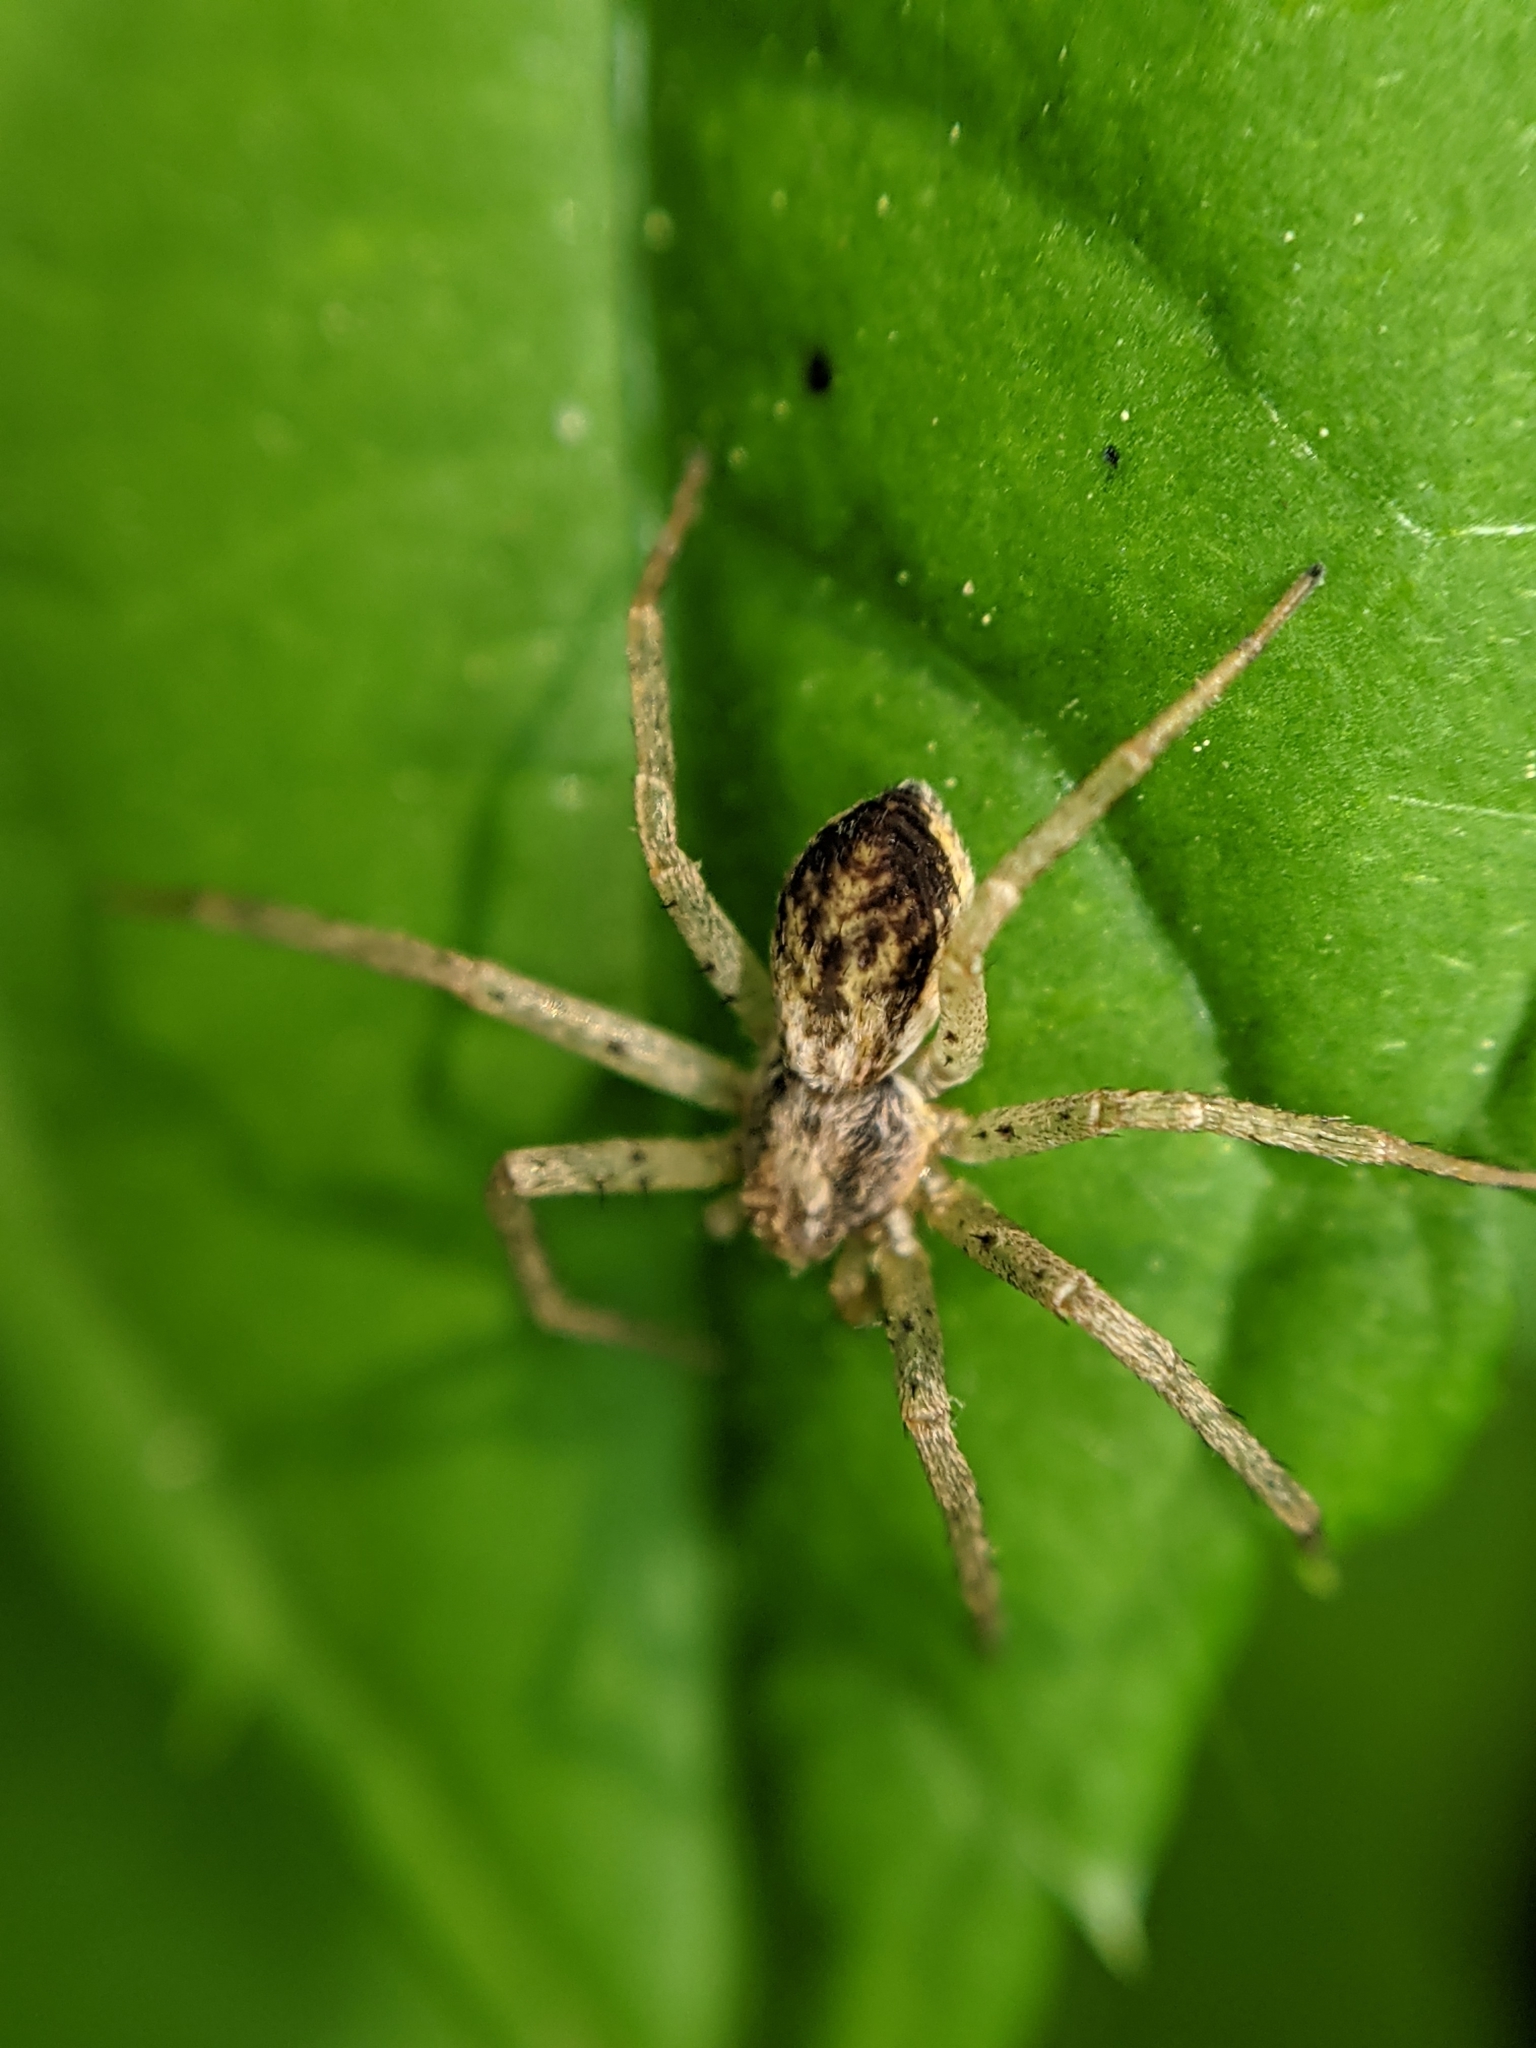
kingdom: Animalia
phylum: Arthropoda
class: Arachnida
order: Araneae
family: Philodromidae
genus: Philodromus
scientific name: Philodromus dispar
